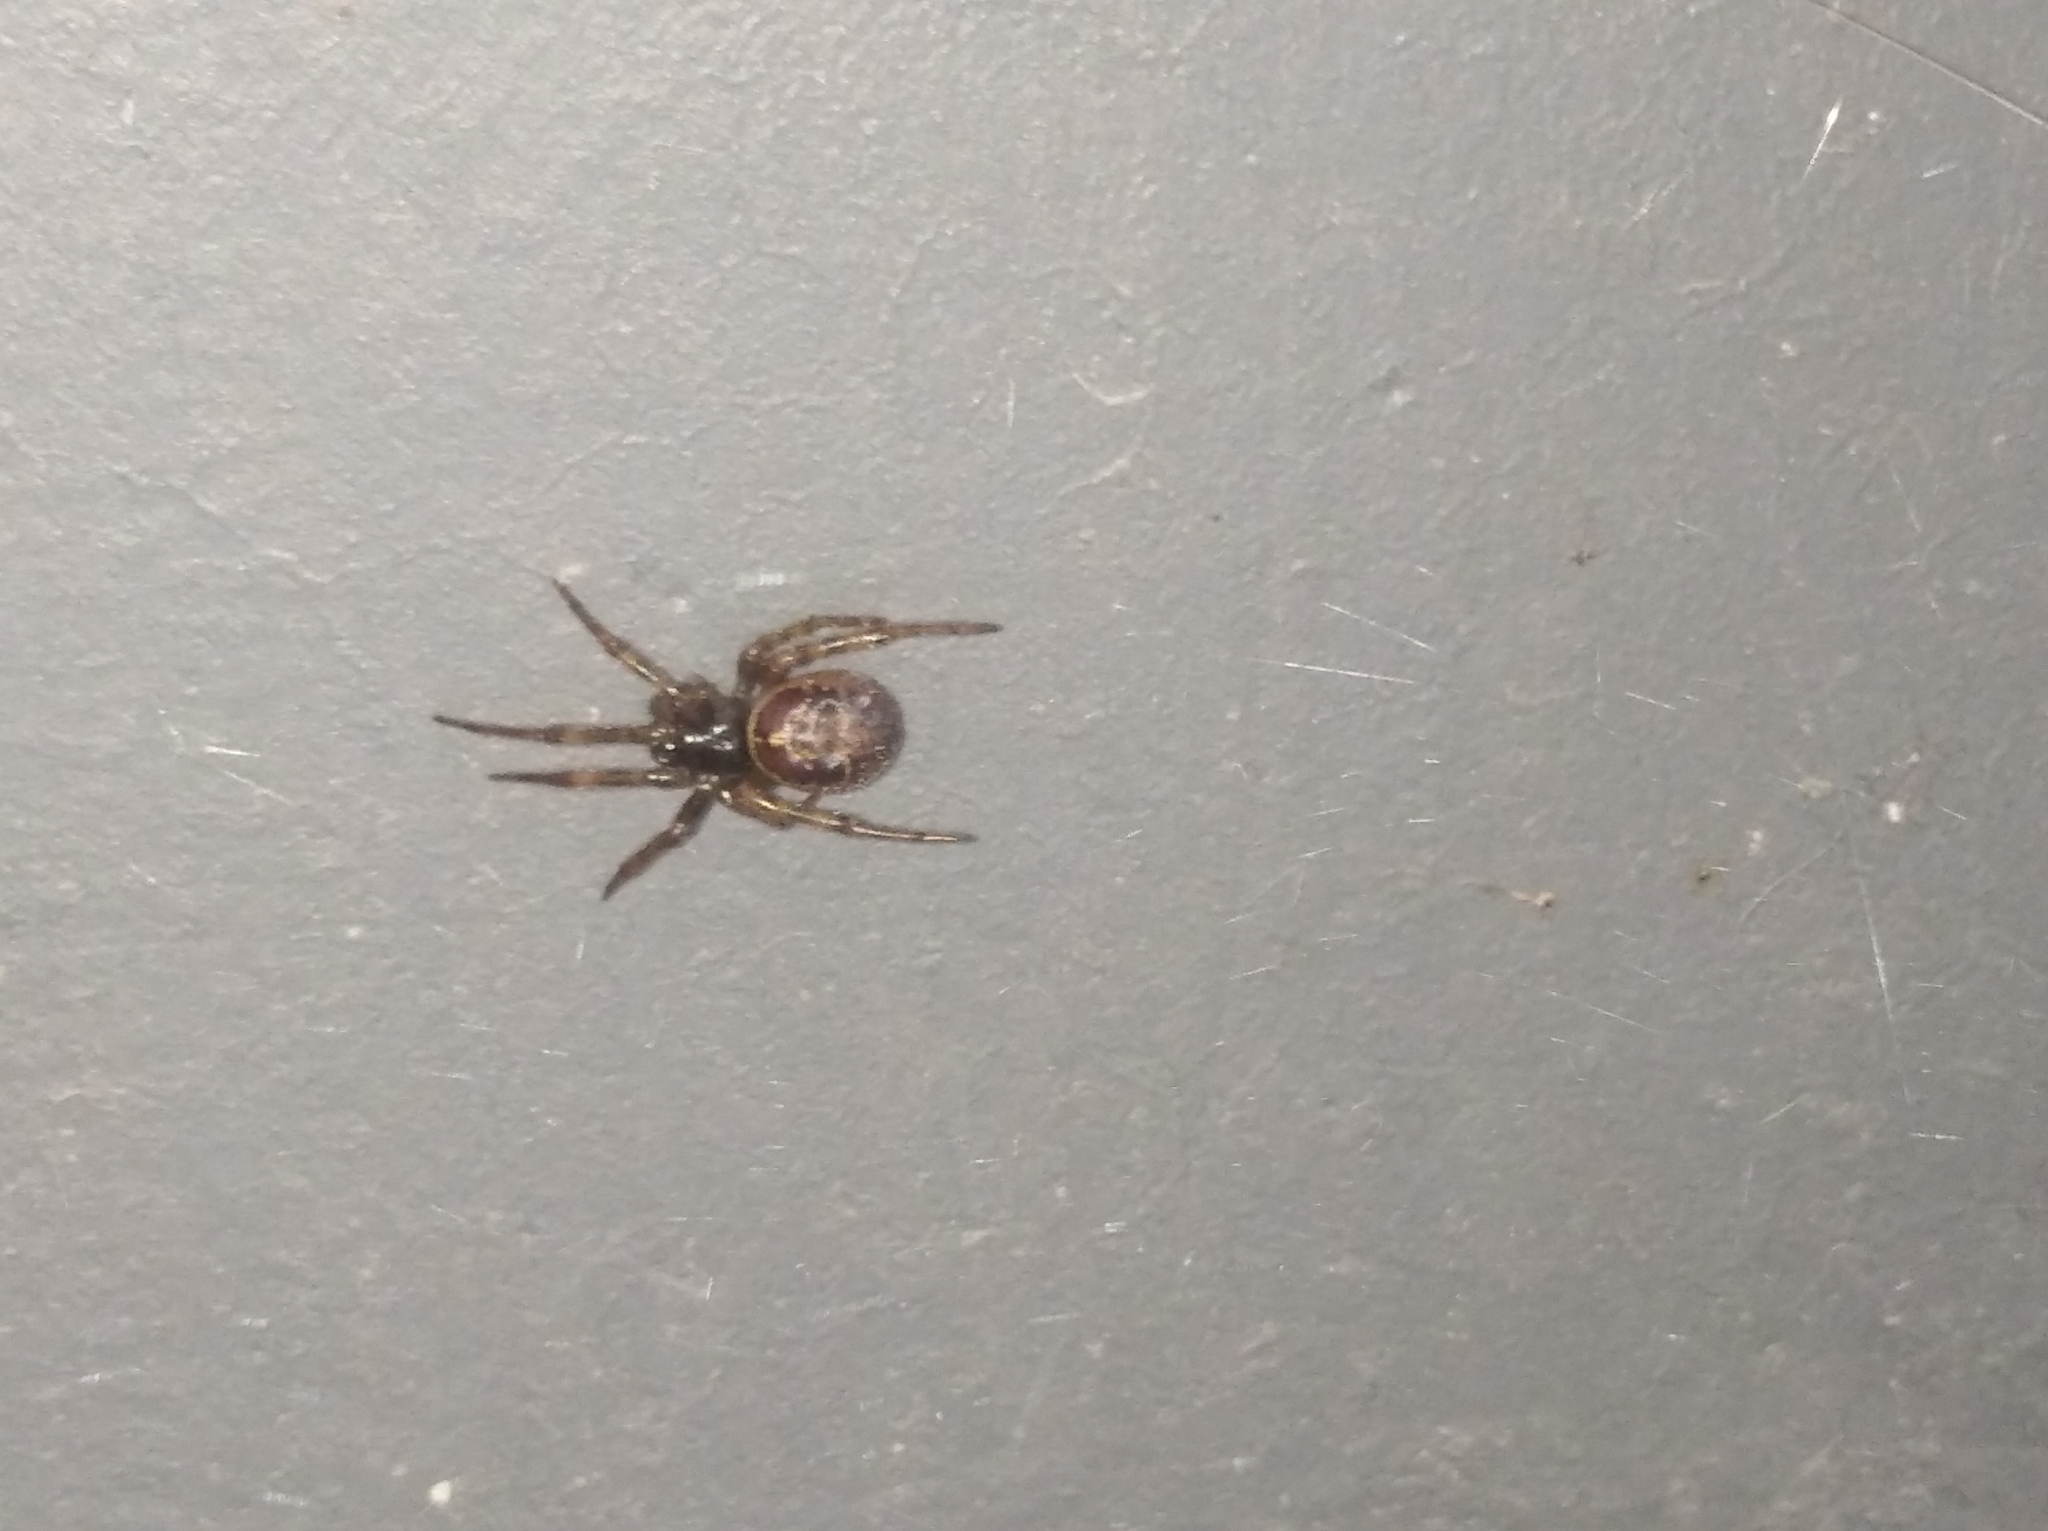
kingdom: Animalia
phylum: Arthropoda
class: Arachnida
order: Araneae
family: Theridiidae
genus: Steatoda
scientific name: Steatoda nobilis
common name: Cobweb weaver
